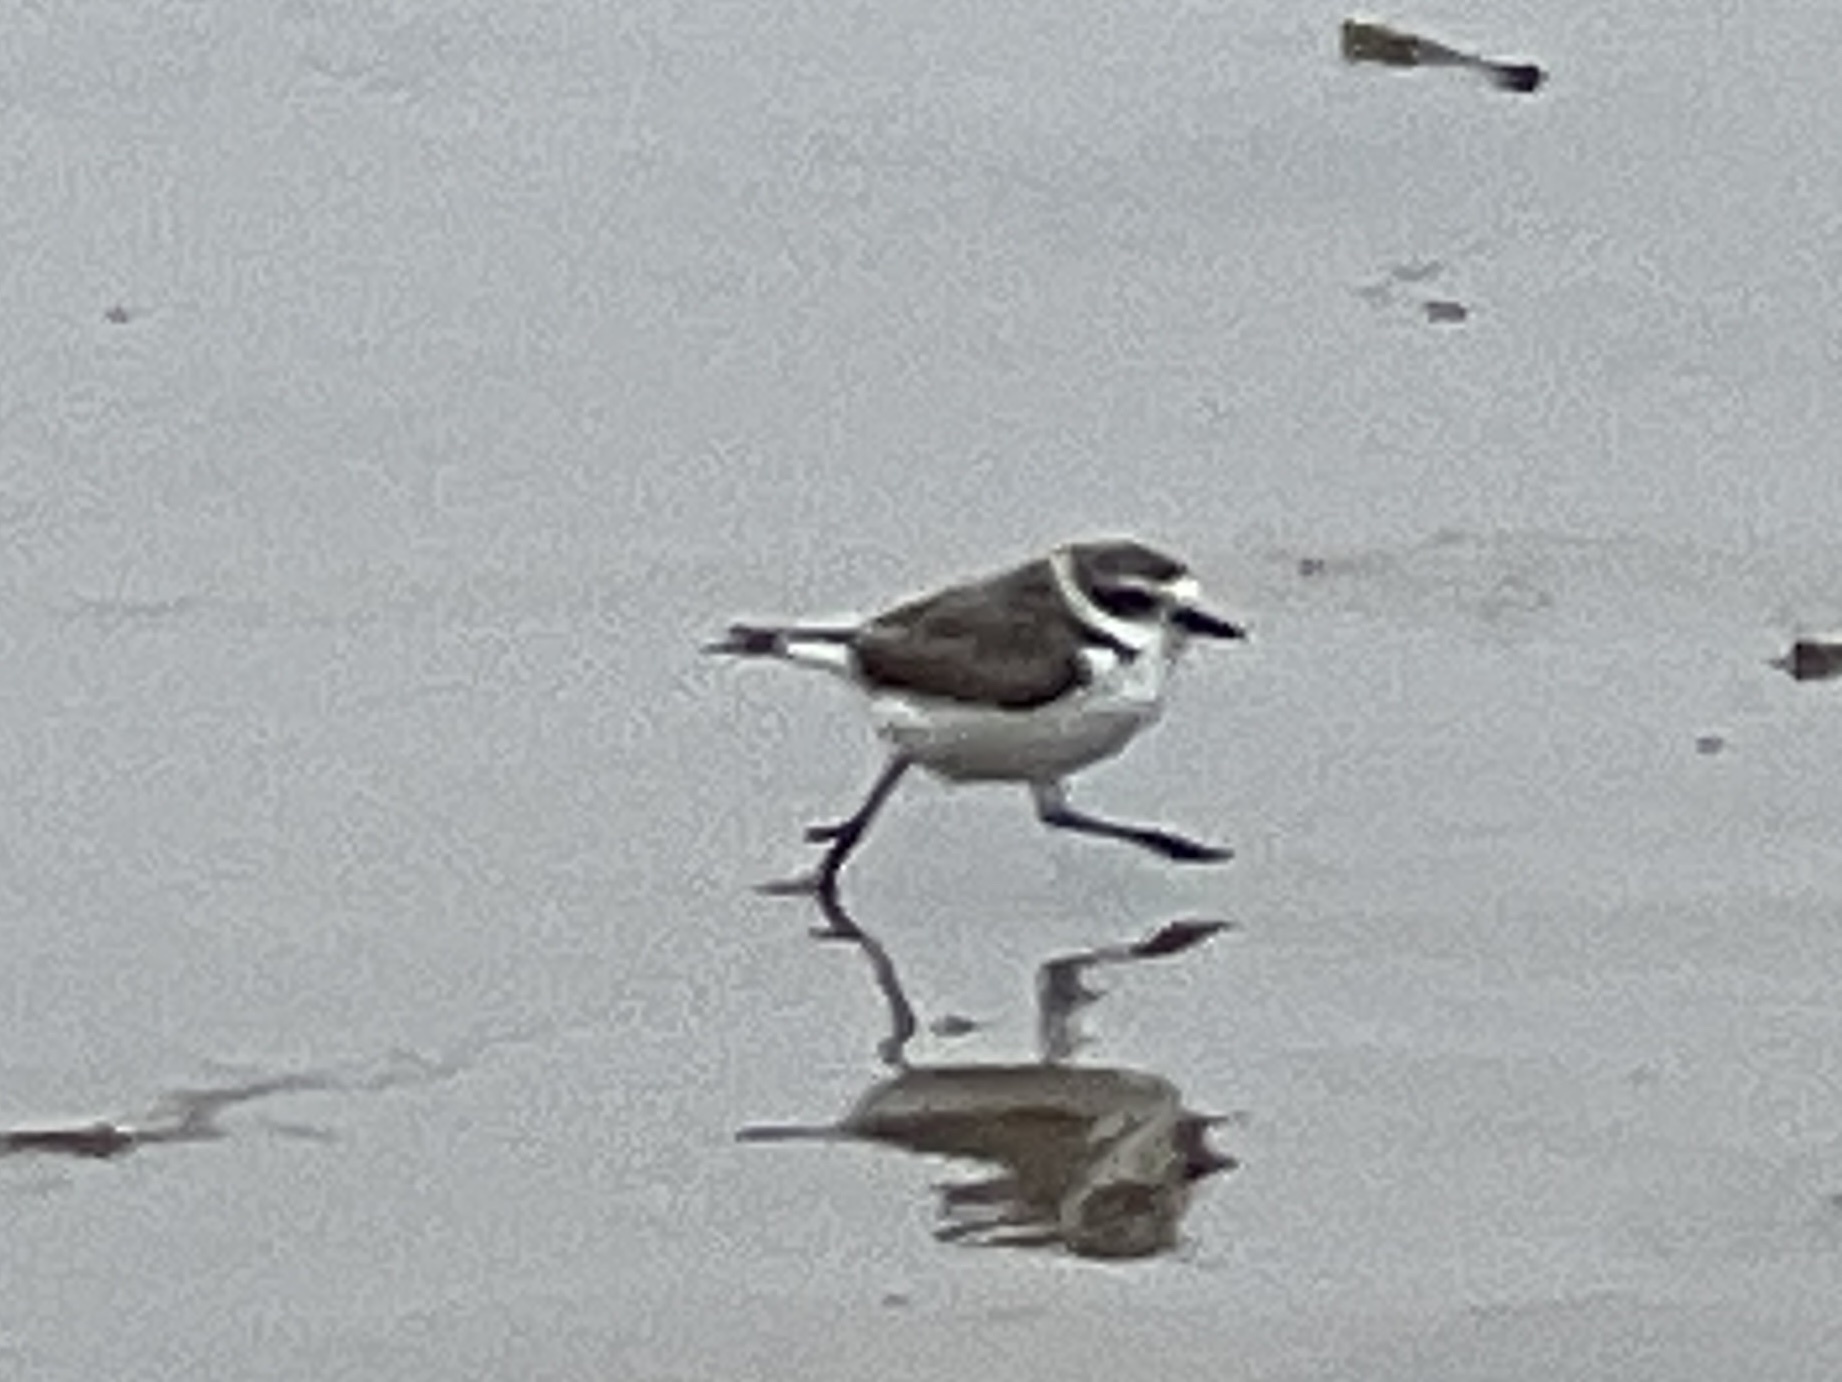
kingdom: Animalia
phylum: Chordata
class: Aves
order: Charadriiformes
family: Charadriidae
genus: Anarhynchus
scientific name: Anarhynchus
